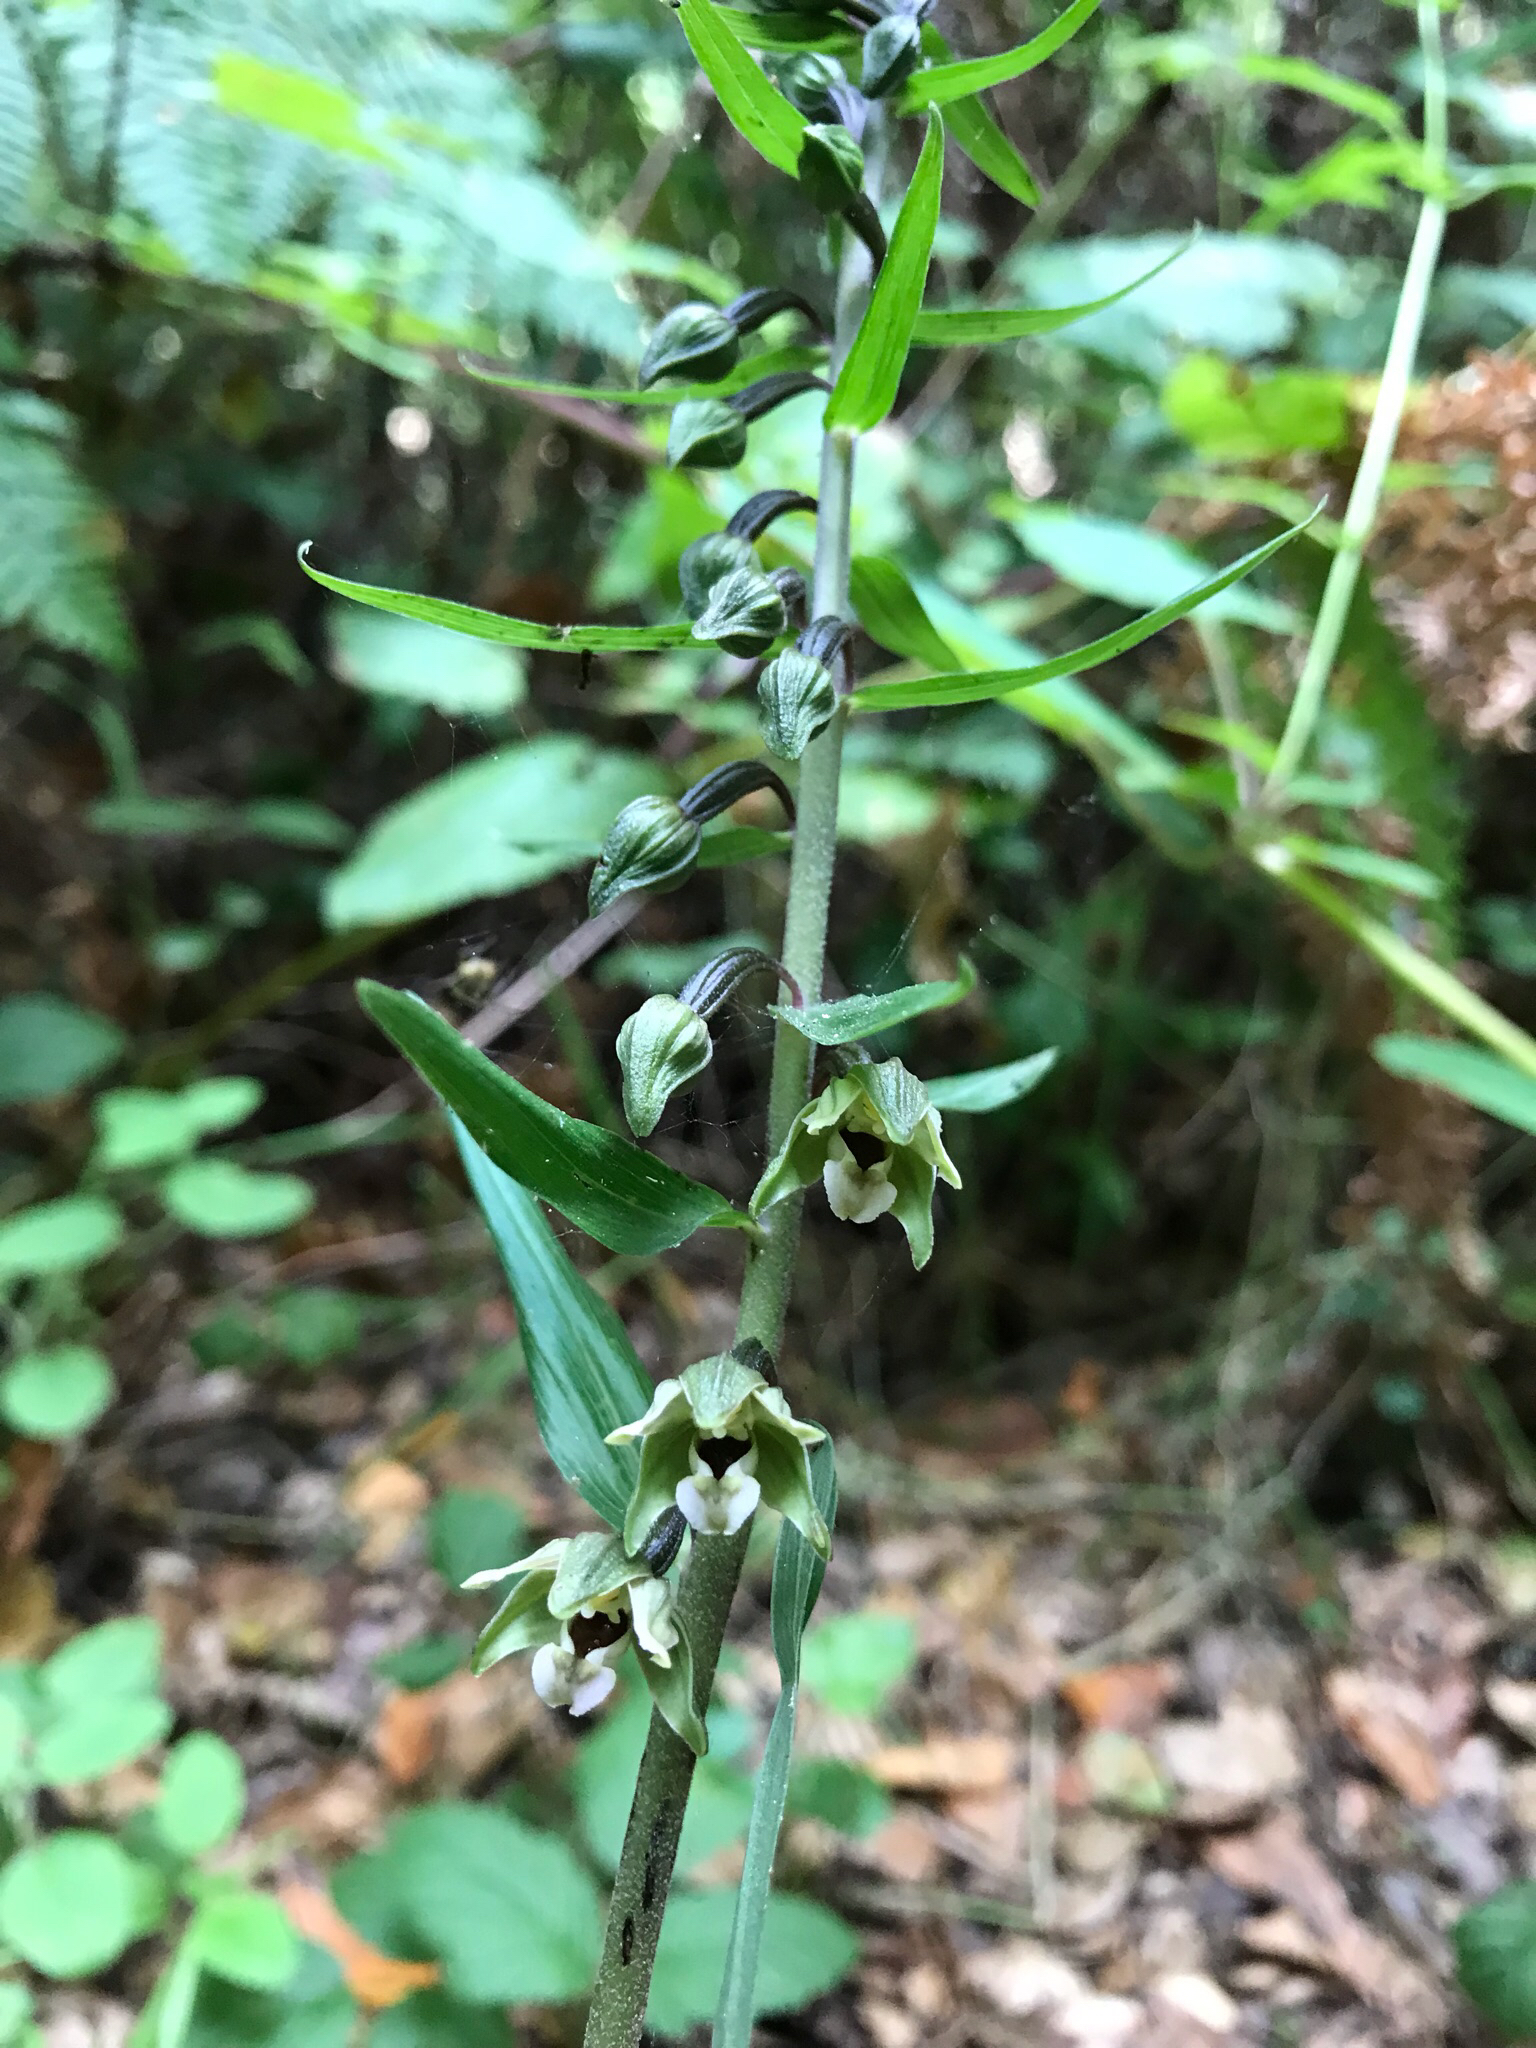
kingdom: Plantae
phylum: Tracheophyta
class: Liliopsida
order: Asparagales
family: Orchidaceae
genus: Epipactis
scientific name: Epipactis helleborine
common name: Broad-leaved helleborine
